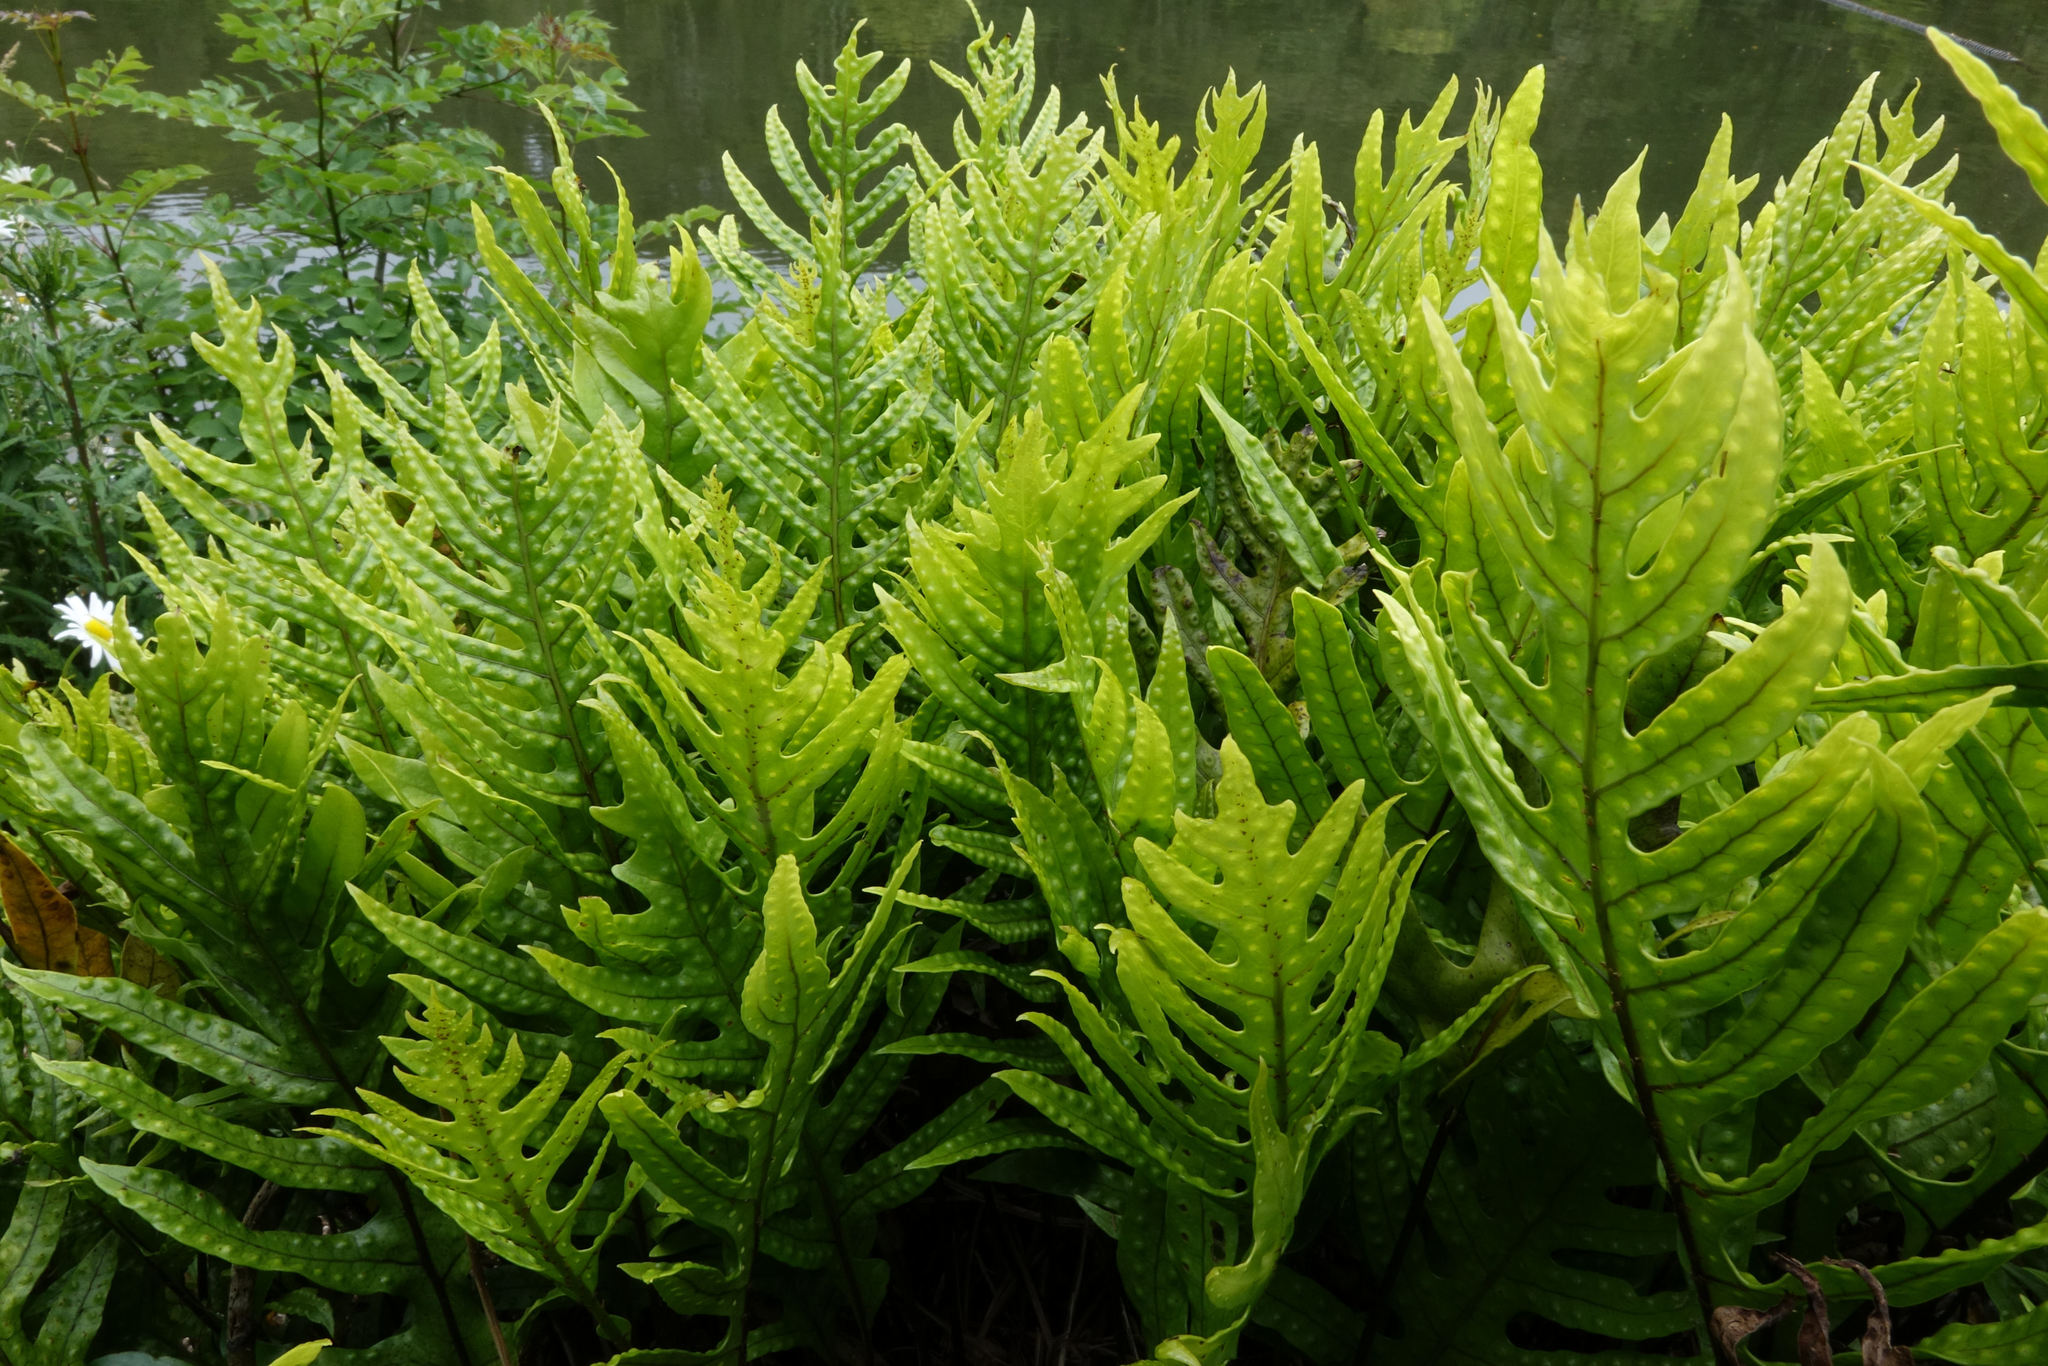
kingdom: Plantae
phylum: Tracheophyta
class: Polypodiopsida
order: Polypodiales
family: Polypodiaceae
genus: Lecanopteris
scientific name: Lecanopteris pustulata
